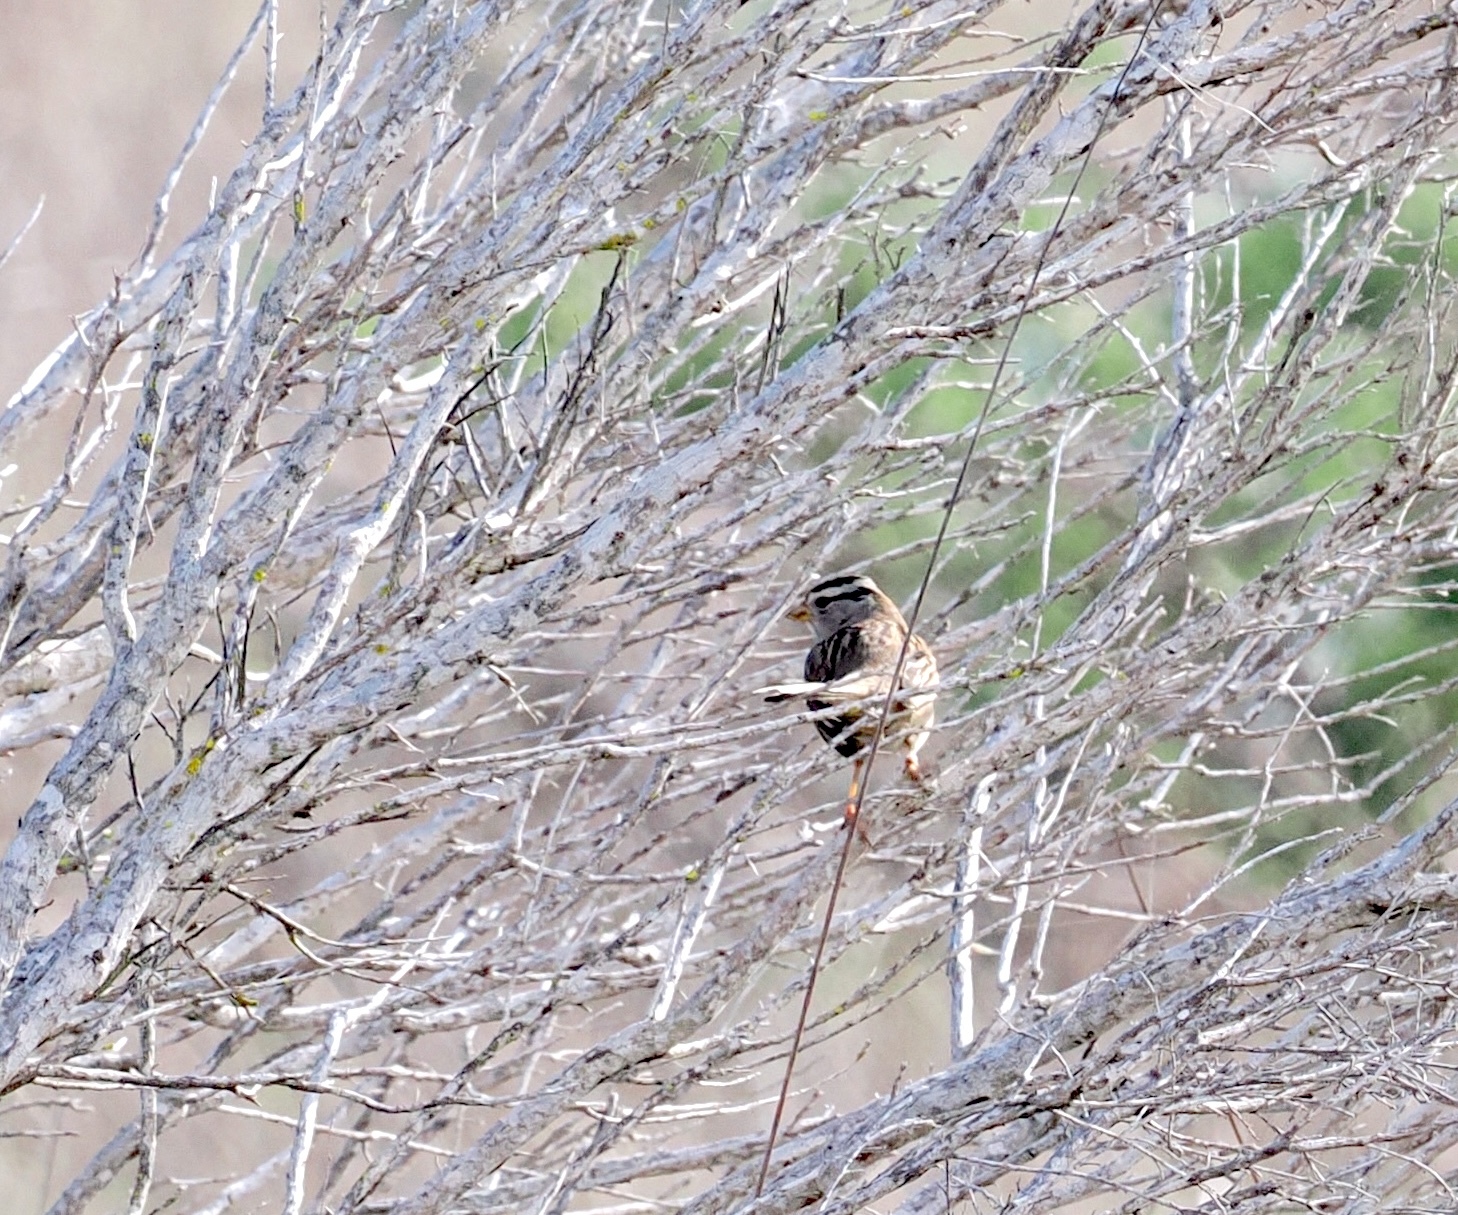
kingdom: Animalia
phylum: Chordata
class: Aves
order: Passeriformes
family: Passerellidae
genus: Zonotrichia
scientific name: Zonotrichia leucophrys
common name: White-crowned sparrow
